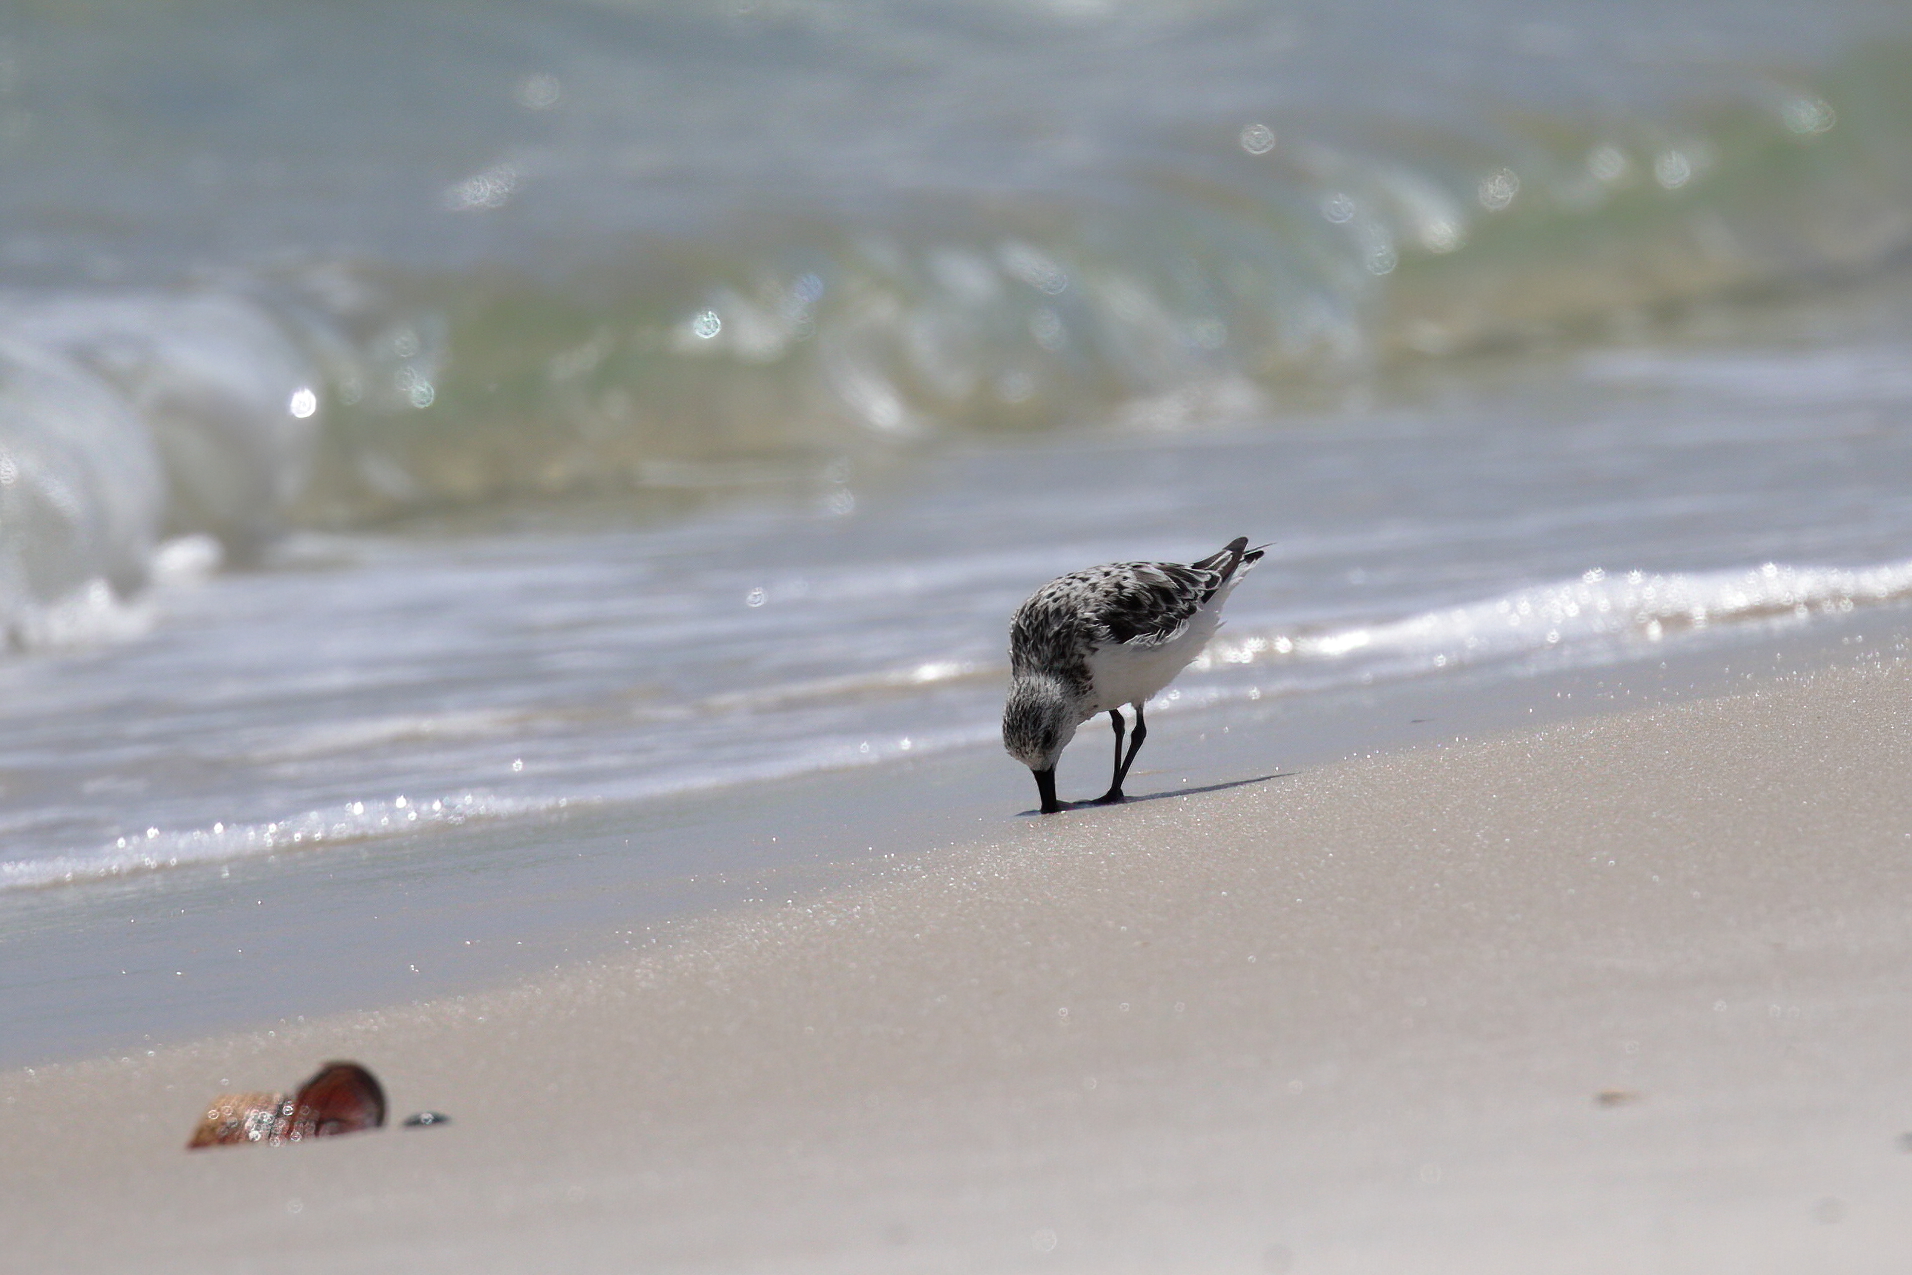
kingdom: Animalia
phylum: Chordata
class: Aves
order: Charadriiformes
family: Scolopacidae
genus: Calidris
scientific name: Calidris alba
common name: Sanderling
